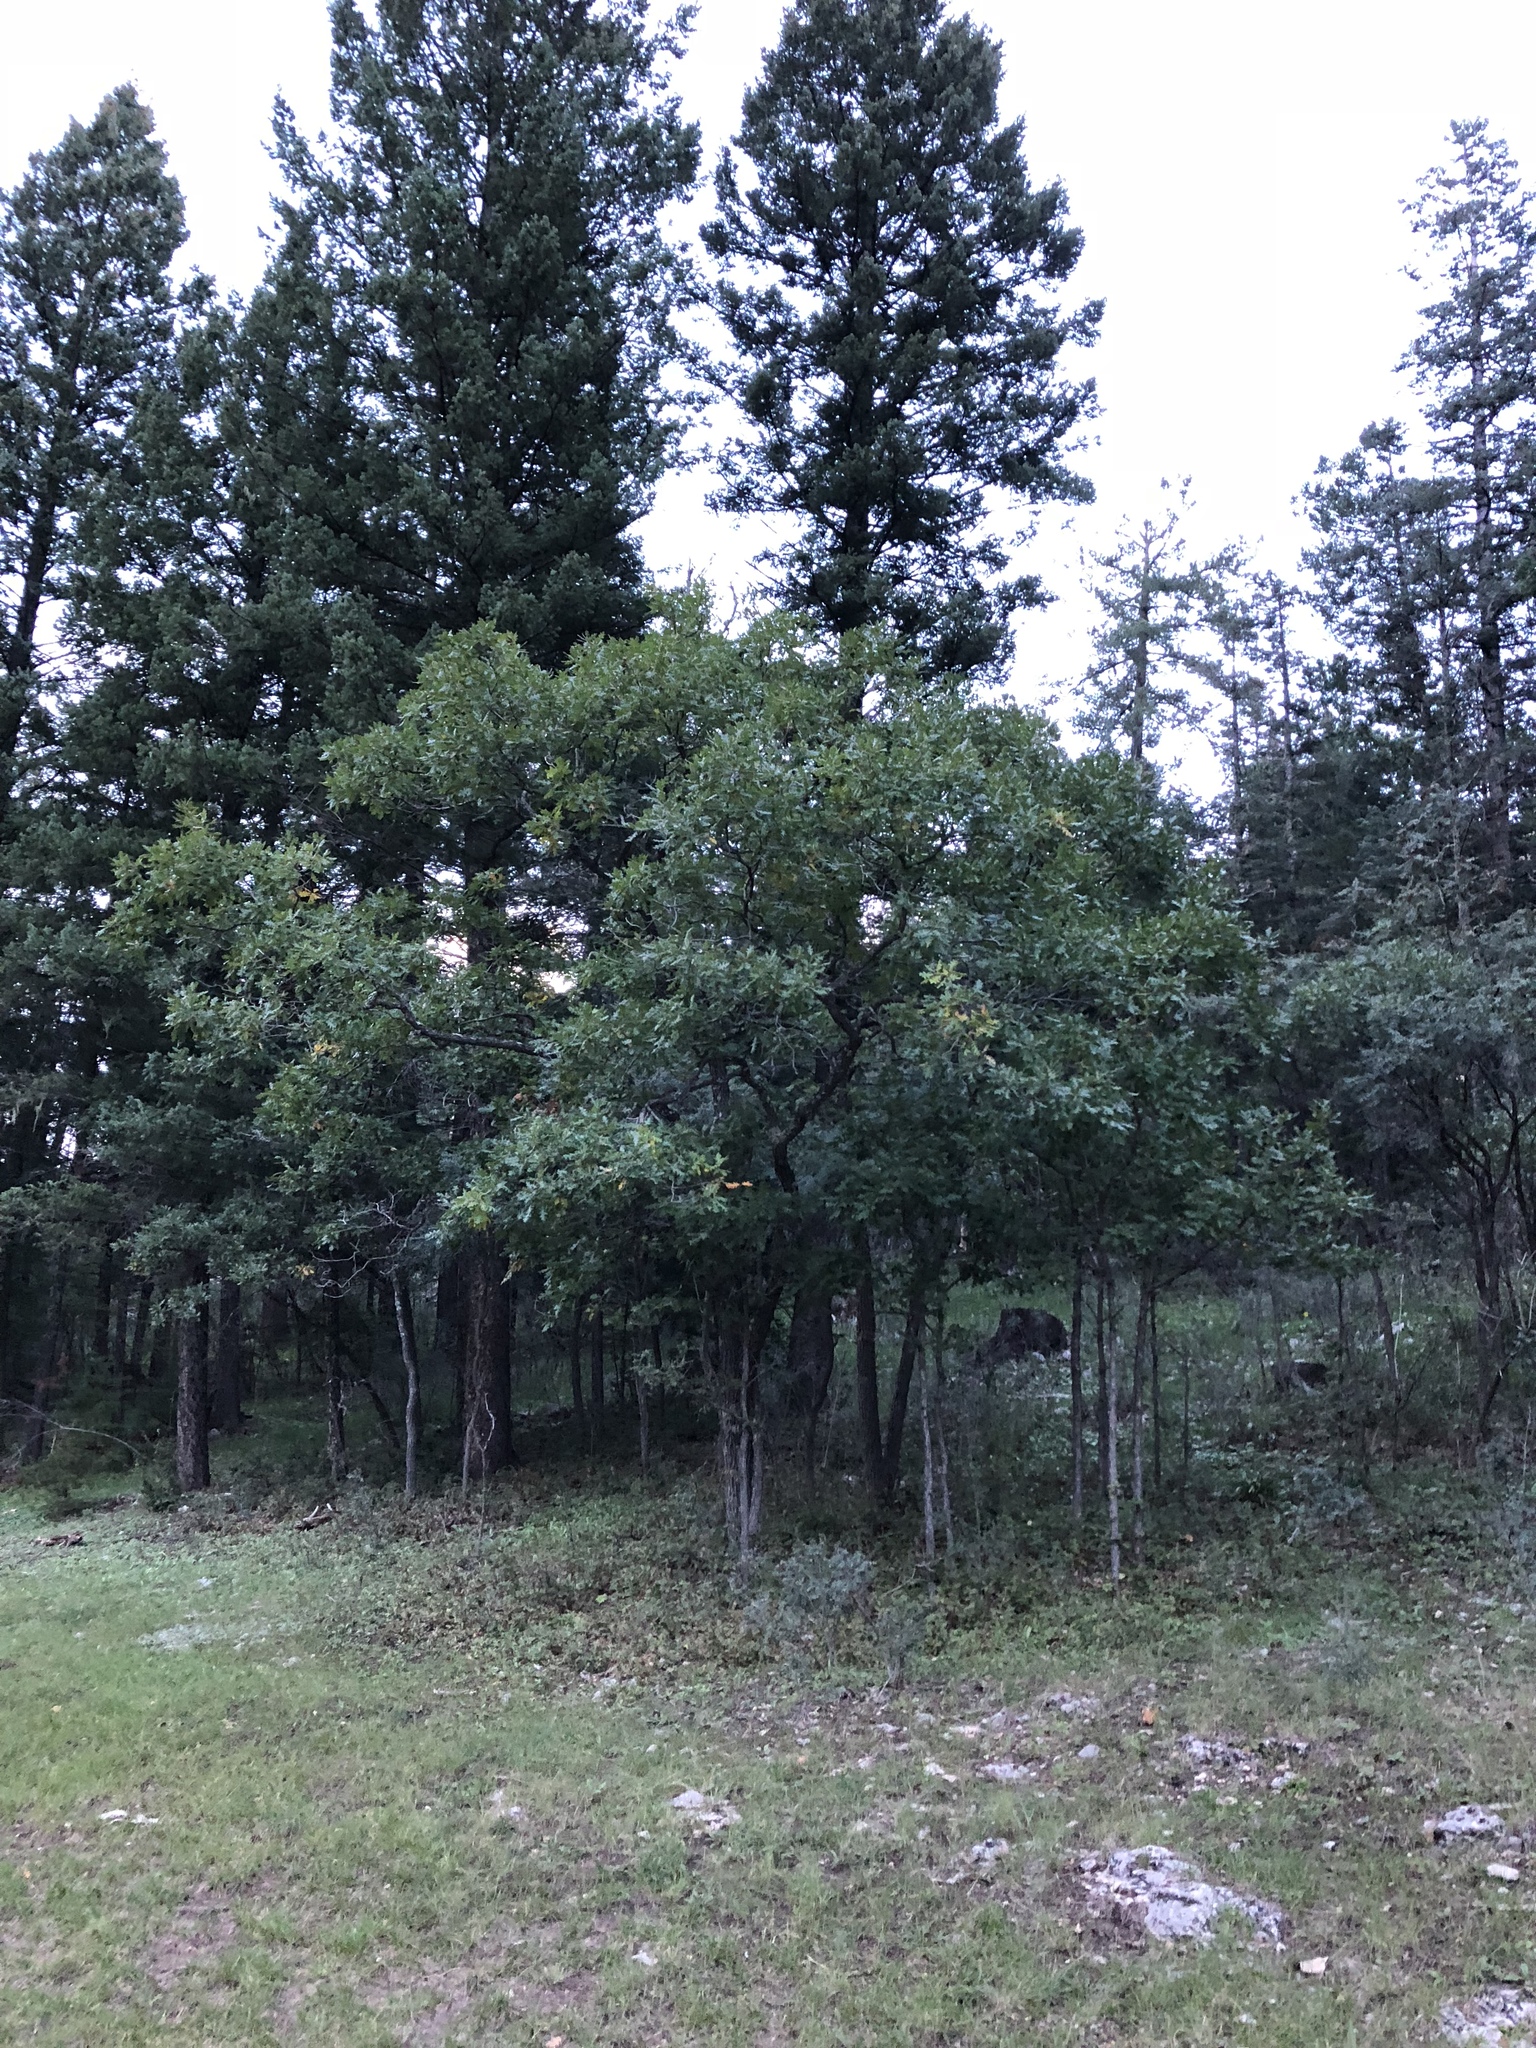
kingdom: Plantae
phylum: Tracheophyta
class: Magnoliopsida
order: Fagales
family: Fagaceae
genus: Quercus
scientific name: Quercus gambelii
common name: Gambel oak
